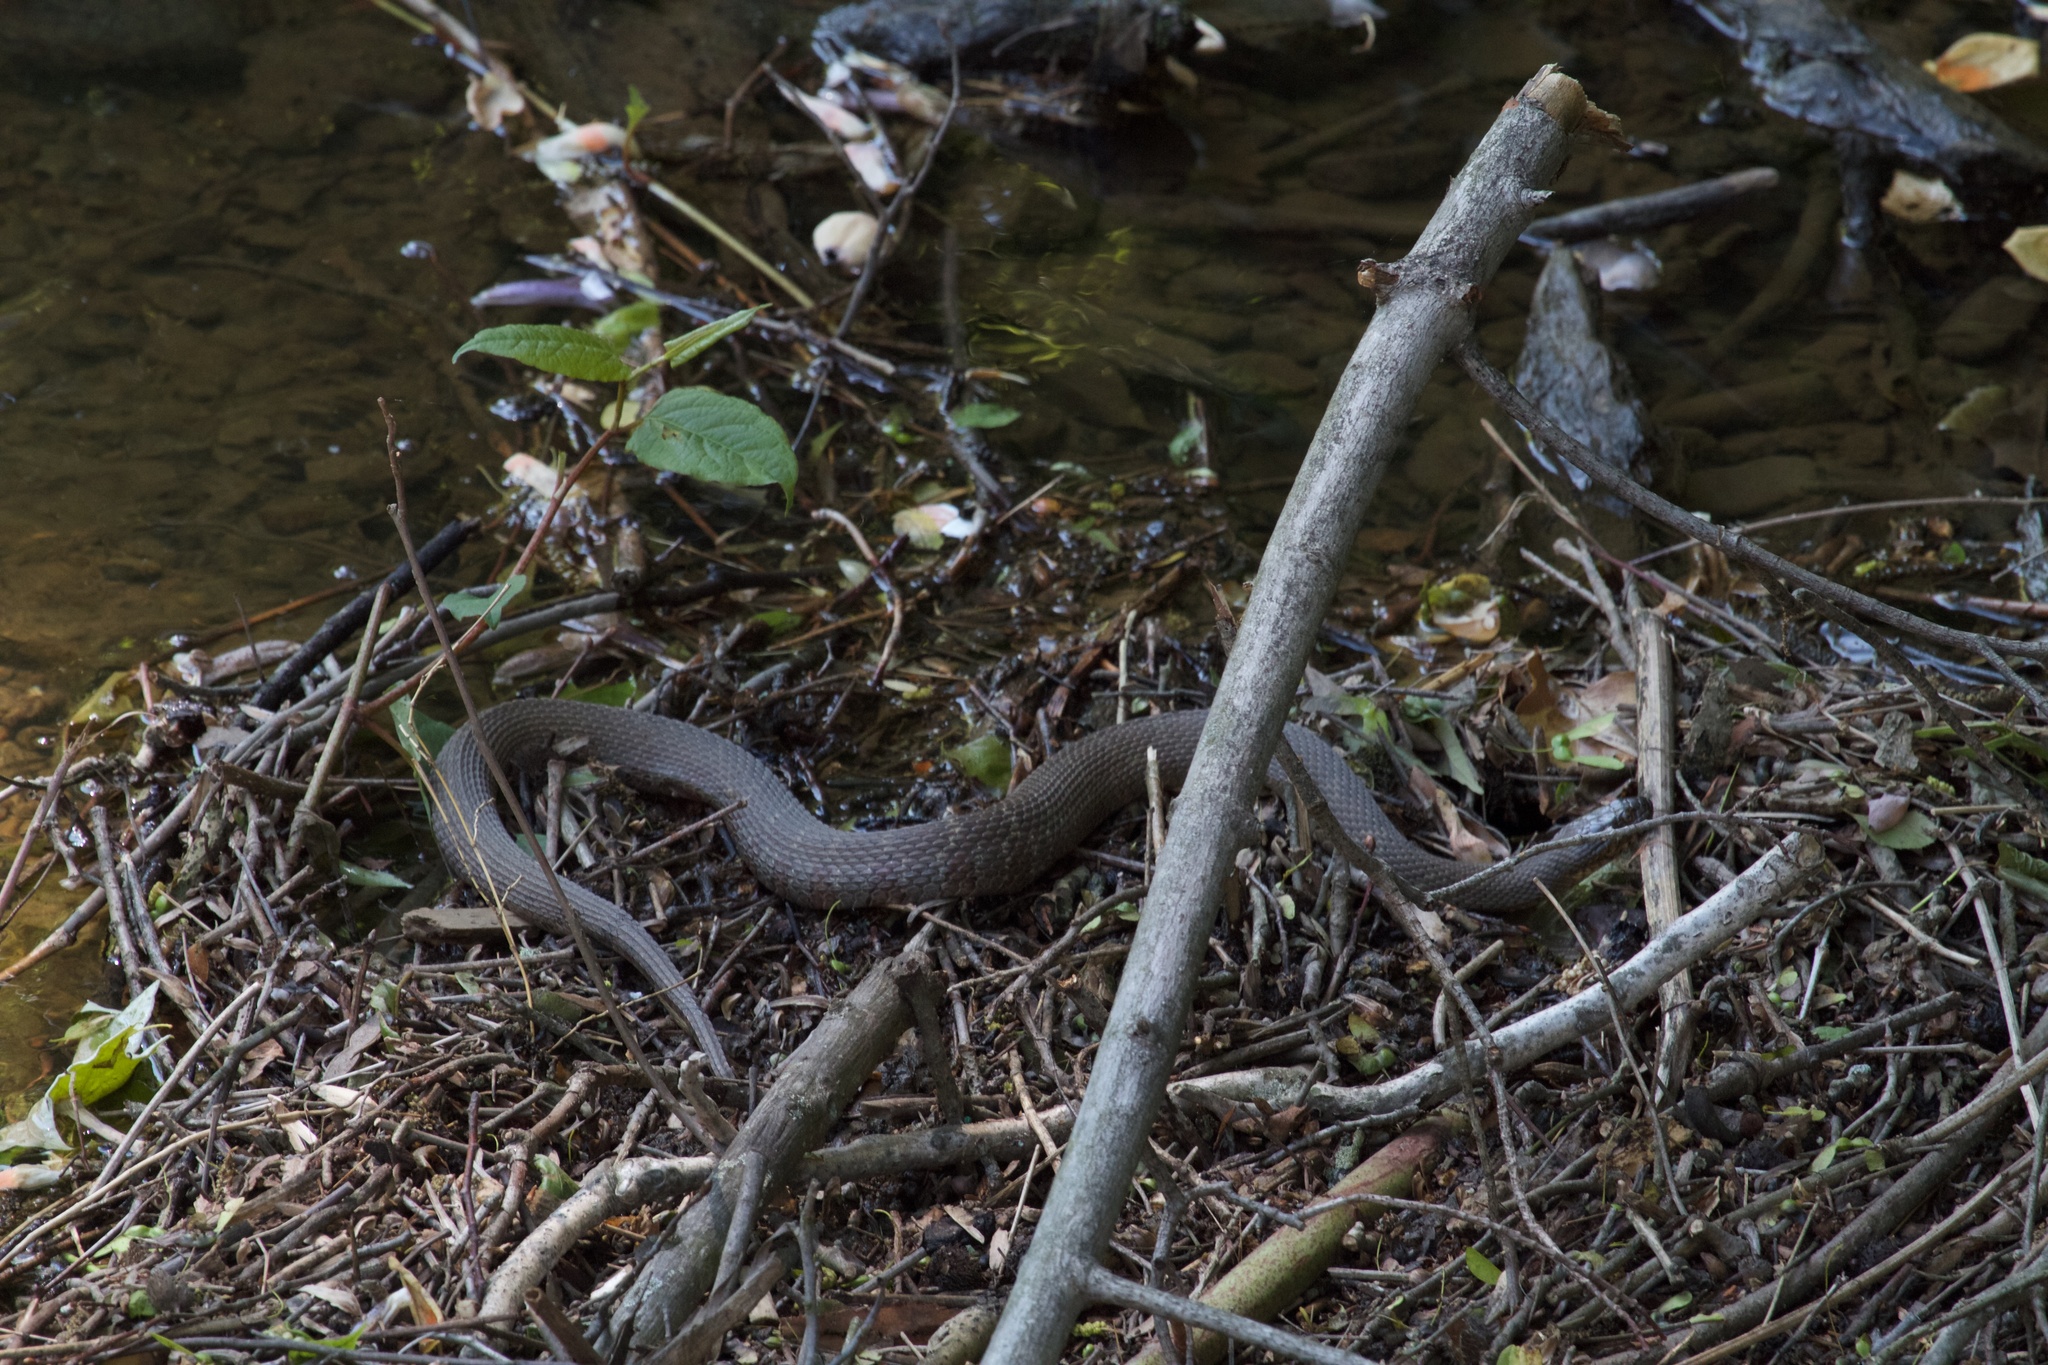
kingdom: Animalia
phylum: Chordata
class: Squamata
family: Colubridae
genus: Nerodia
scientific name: Nerodia sipedon
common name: Northern water snake
